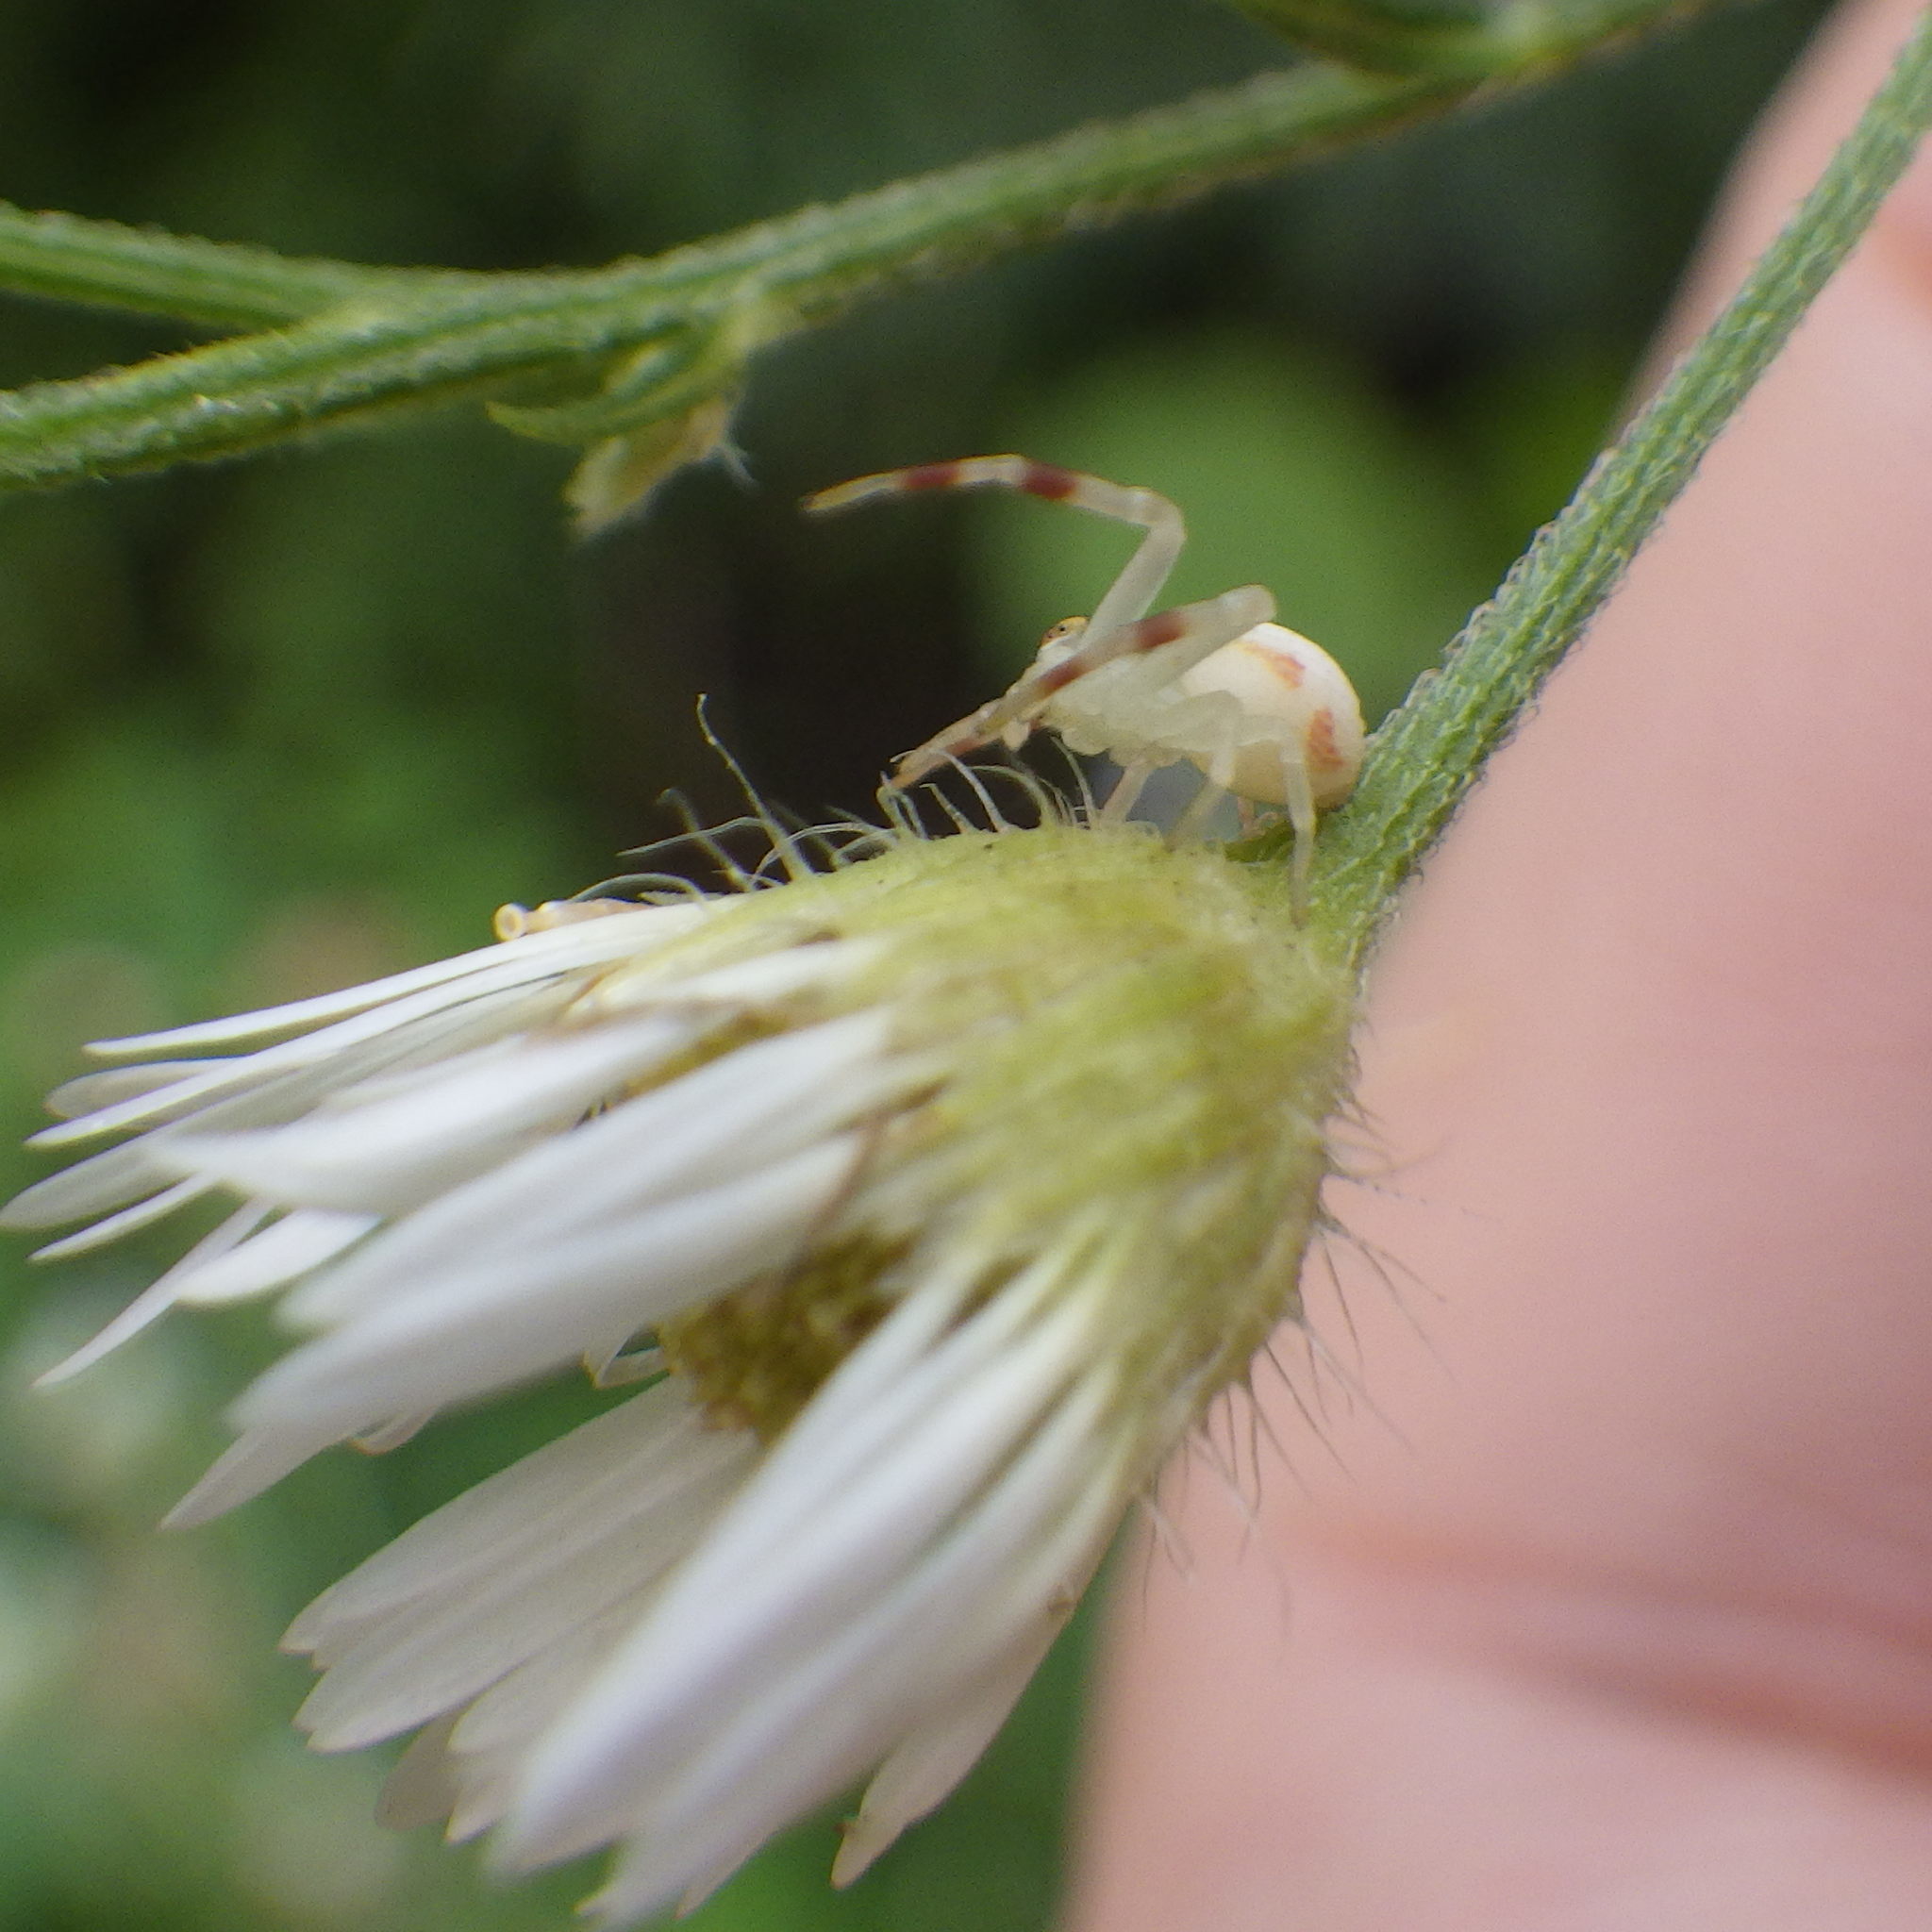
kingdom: Animalia
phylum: Arthropoda
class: Arachnida
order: Araneae
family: Thomisidae
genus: Misumena
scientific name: Misumena vatia
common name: Goldenrod crab spider
